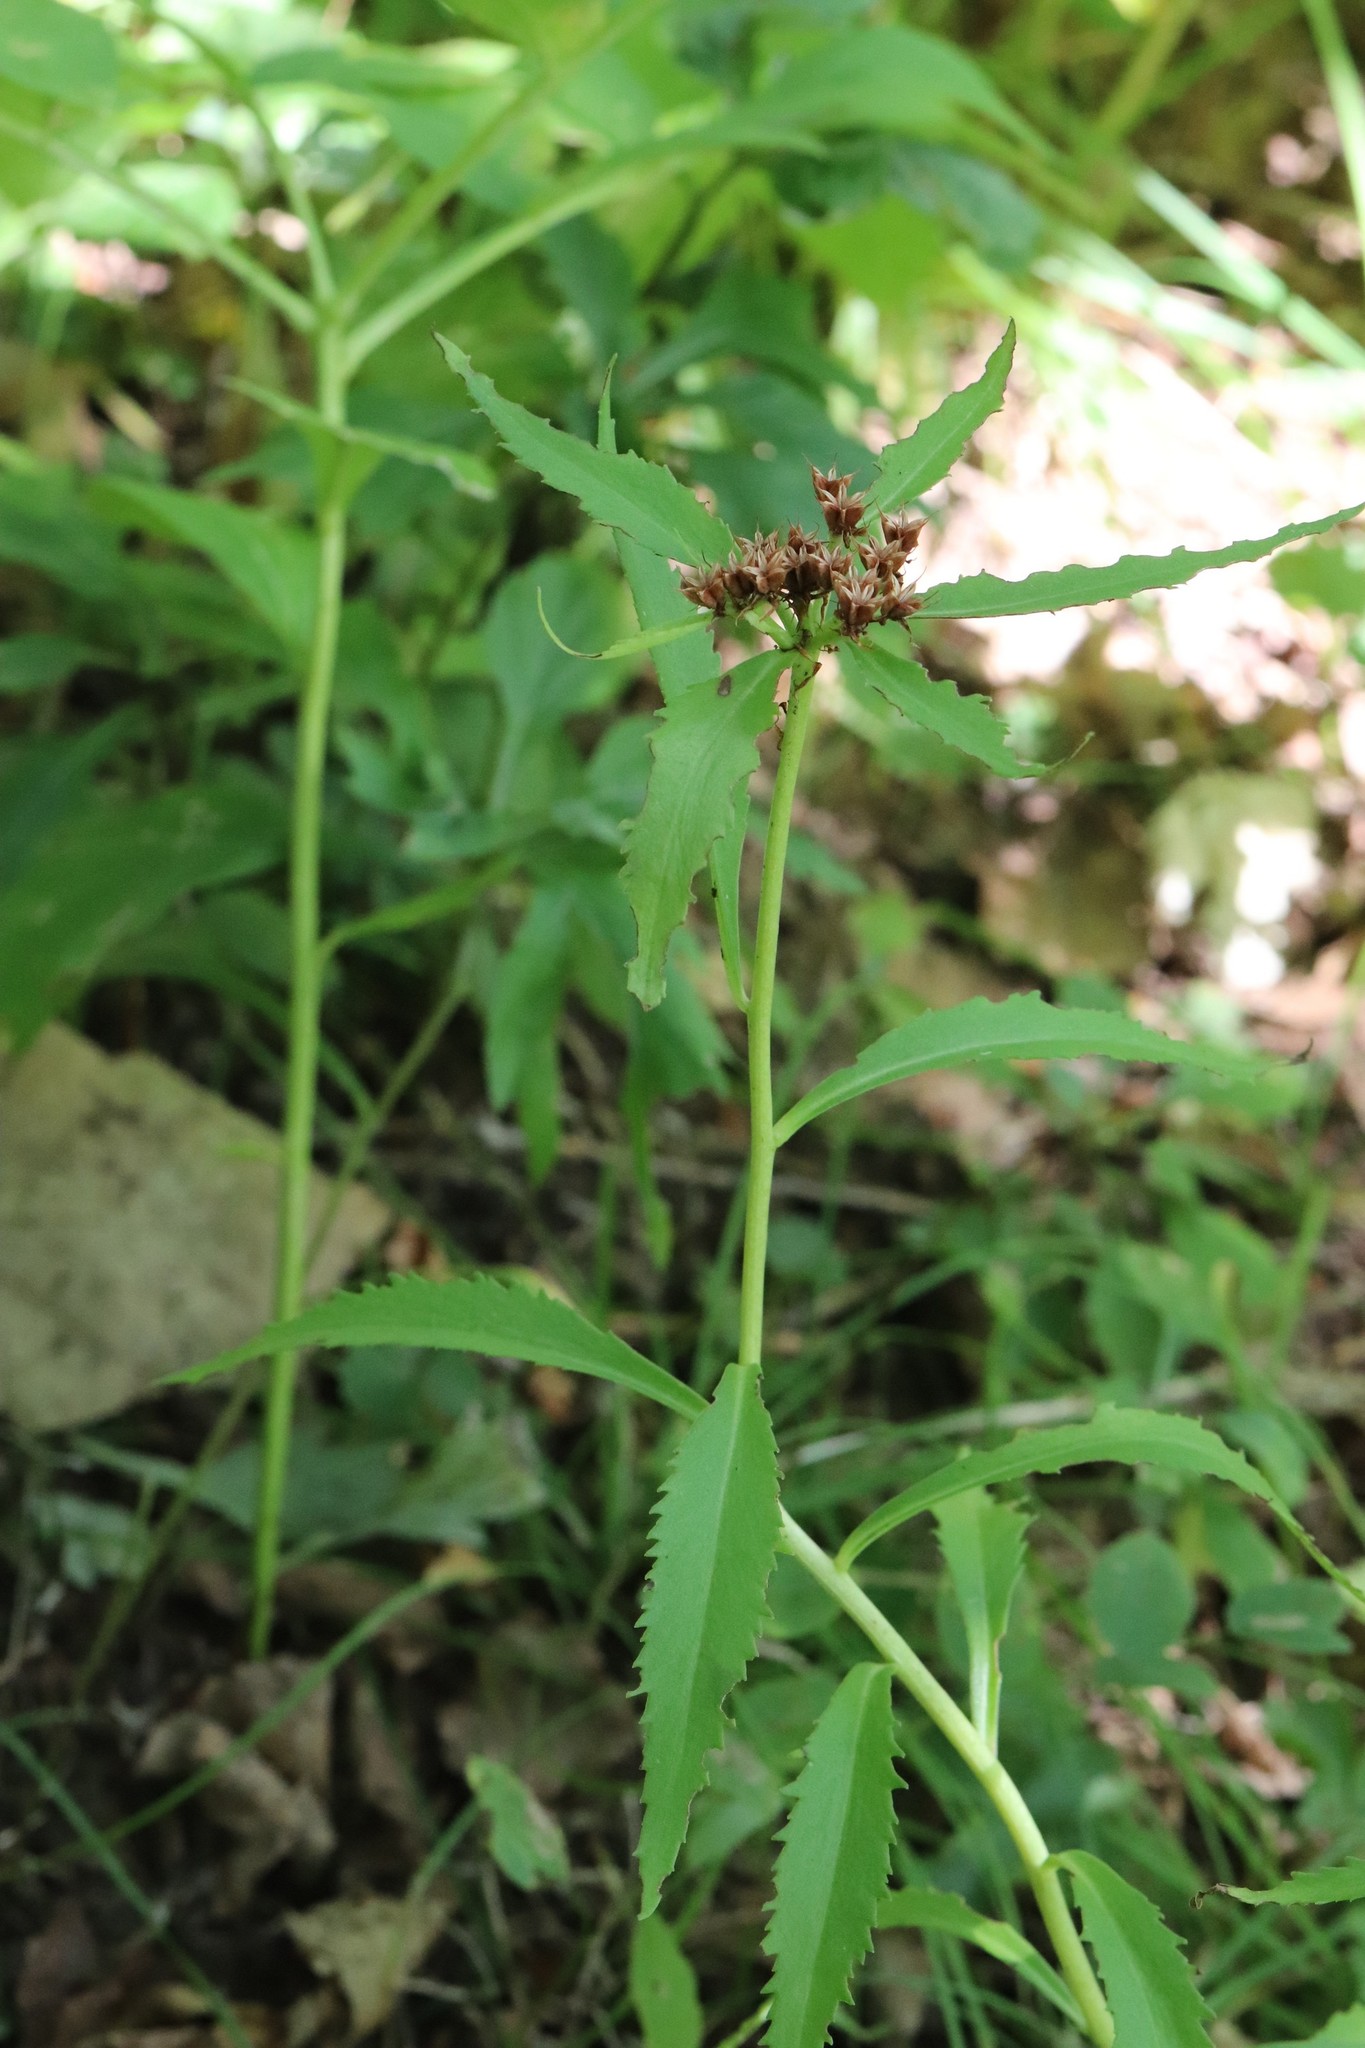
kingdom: Plantae
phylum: Tracheophyta
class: Magnoliopsida
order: Saxifragales
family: Crassulaceae
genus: Phedimus
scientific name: Phedimus aizoon
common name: Orpin aizoon
